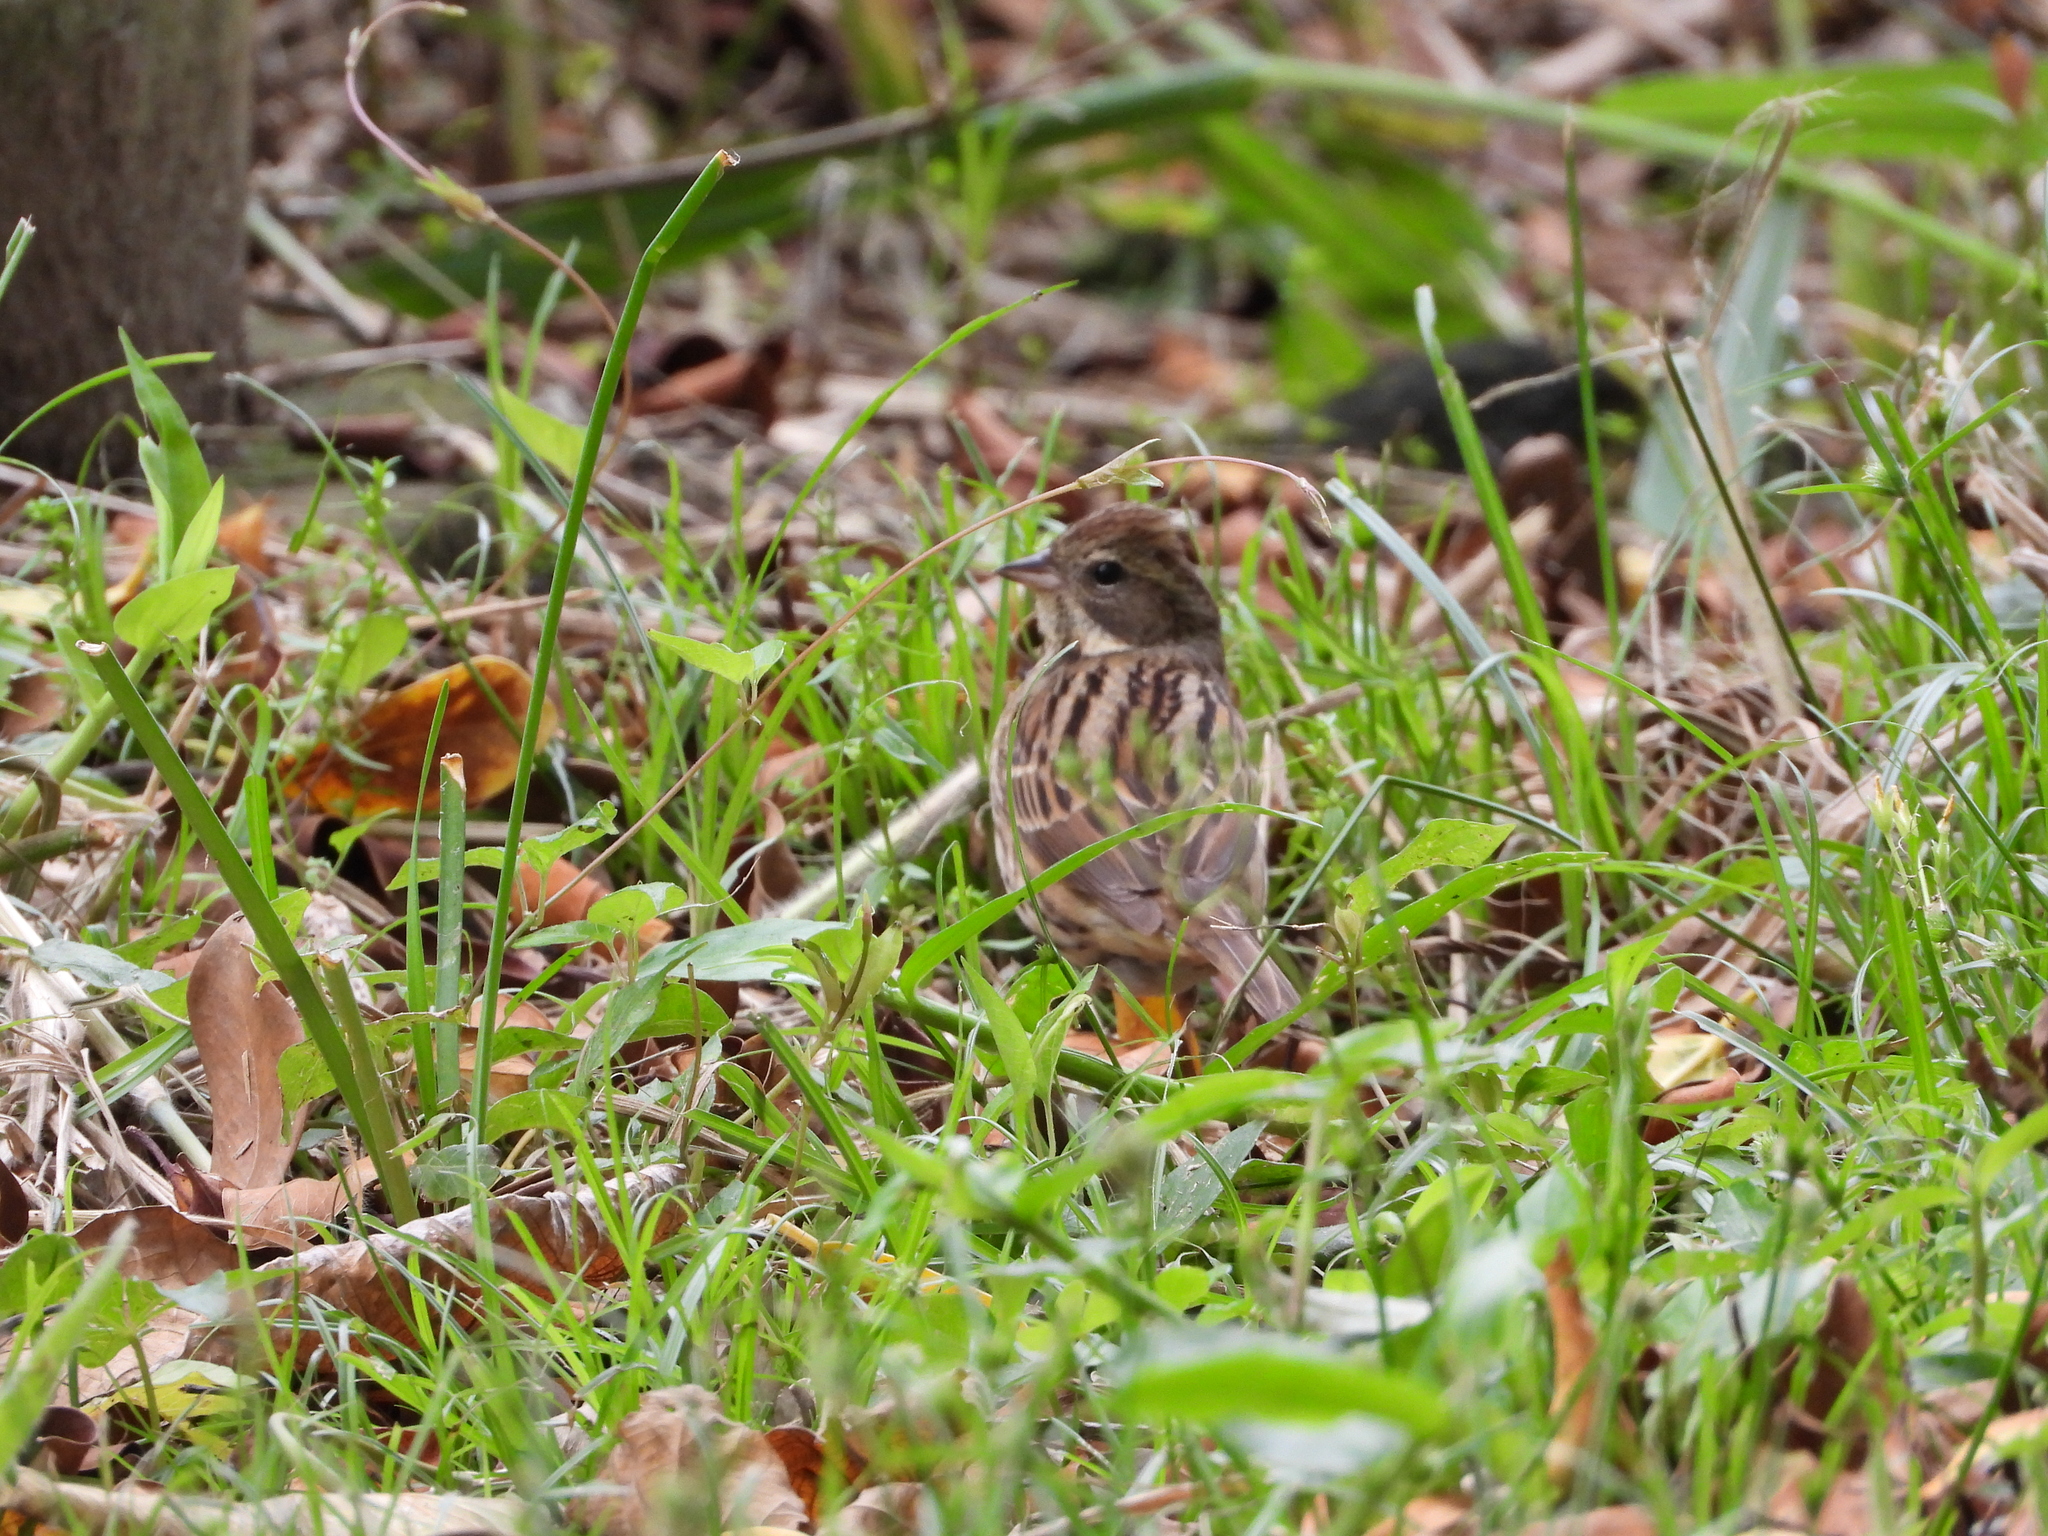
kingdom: Animalia
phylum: Chordata
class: Aves
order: Passeriformes
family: Emberizidae
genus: Emberiza
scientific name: Emberiza spodocephala
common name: Black-faced bunting
